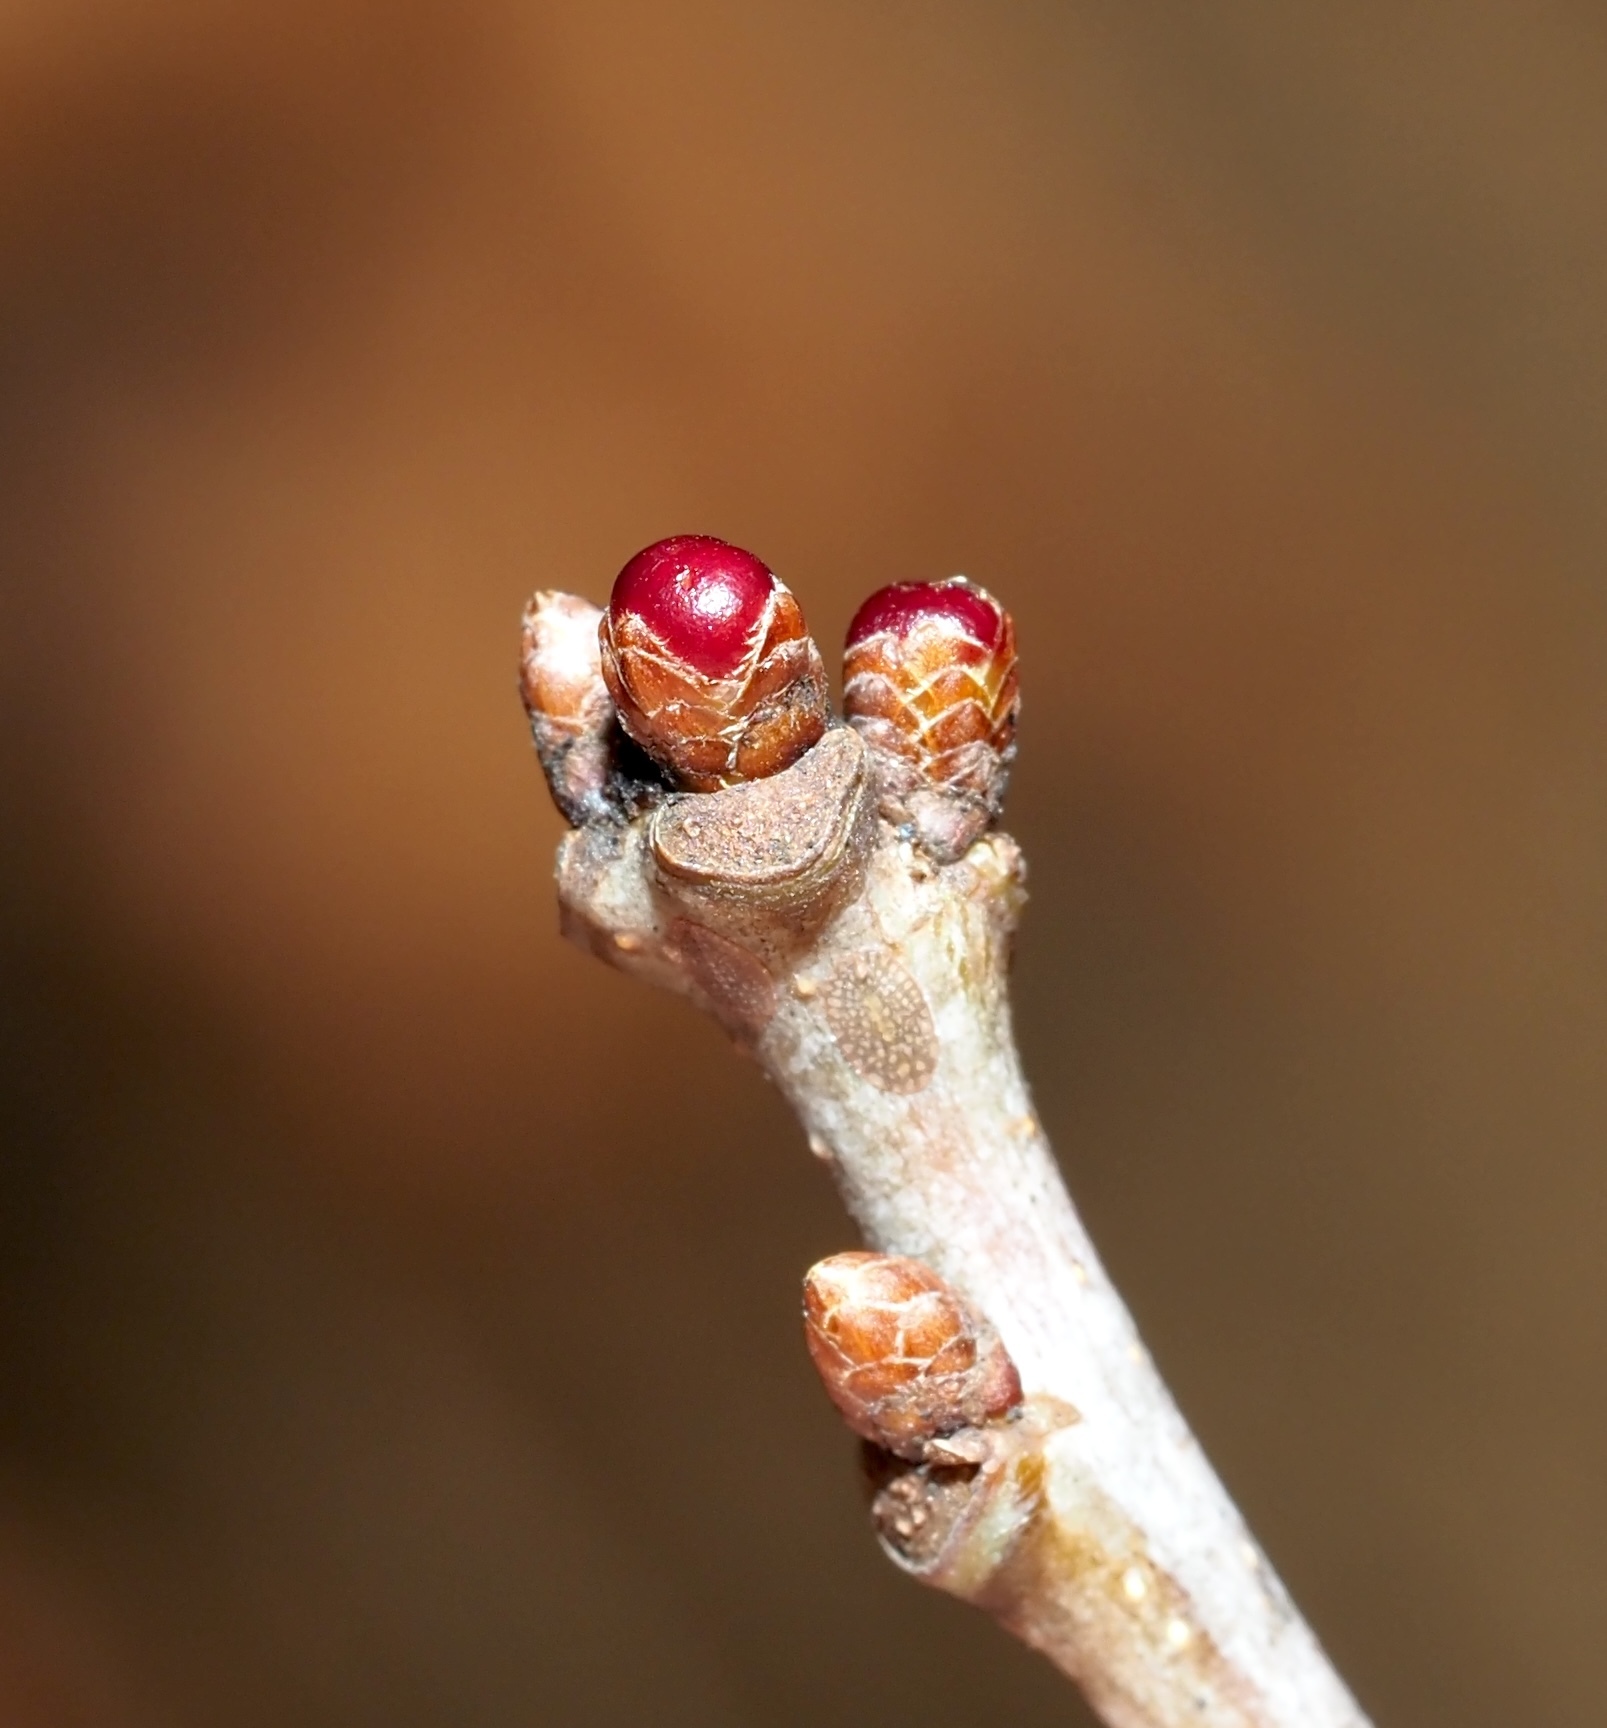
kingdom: Animalia
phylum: Arthropoda
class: Insecta
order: Hymenoptera
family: Cynipidae
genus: Neuroterus
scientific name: Neuroterus
